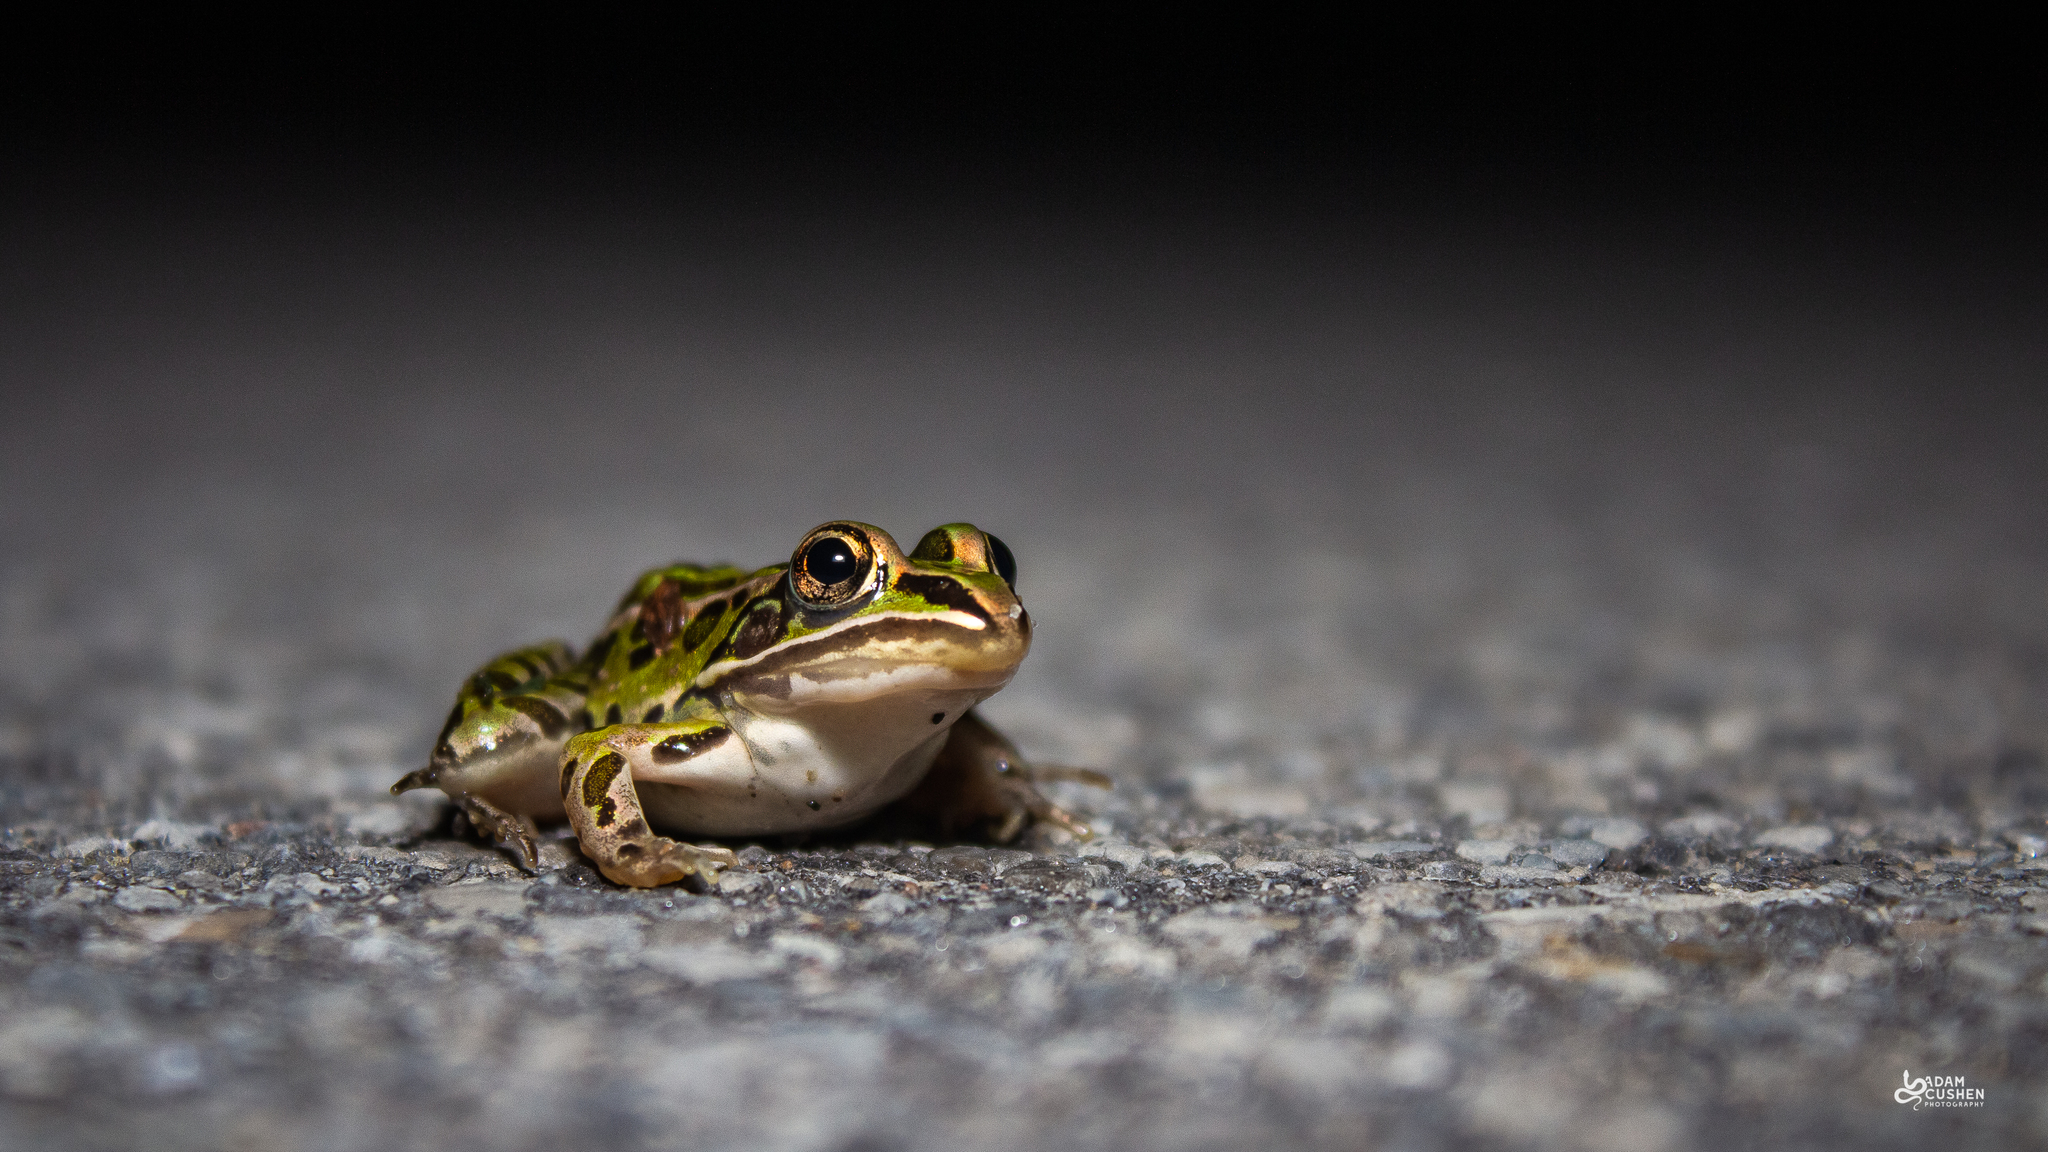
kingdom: Animalia
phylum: Chordata
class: Amphibia
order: Anura
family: Ranidae
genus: Lithobates
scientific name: Lithobates pipiens
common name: Northern leopard frog
